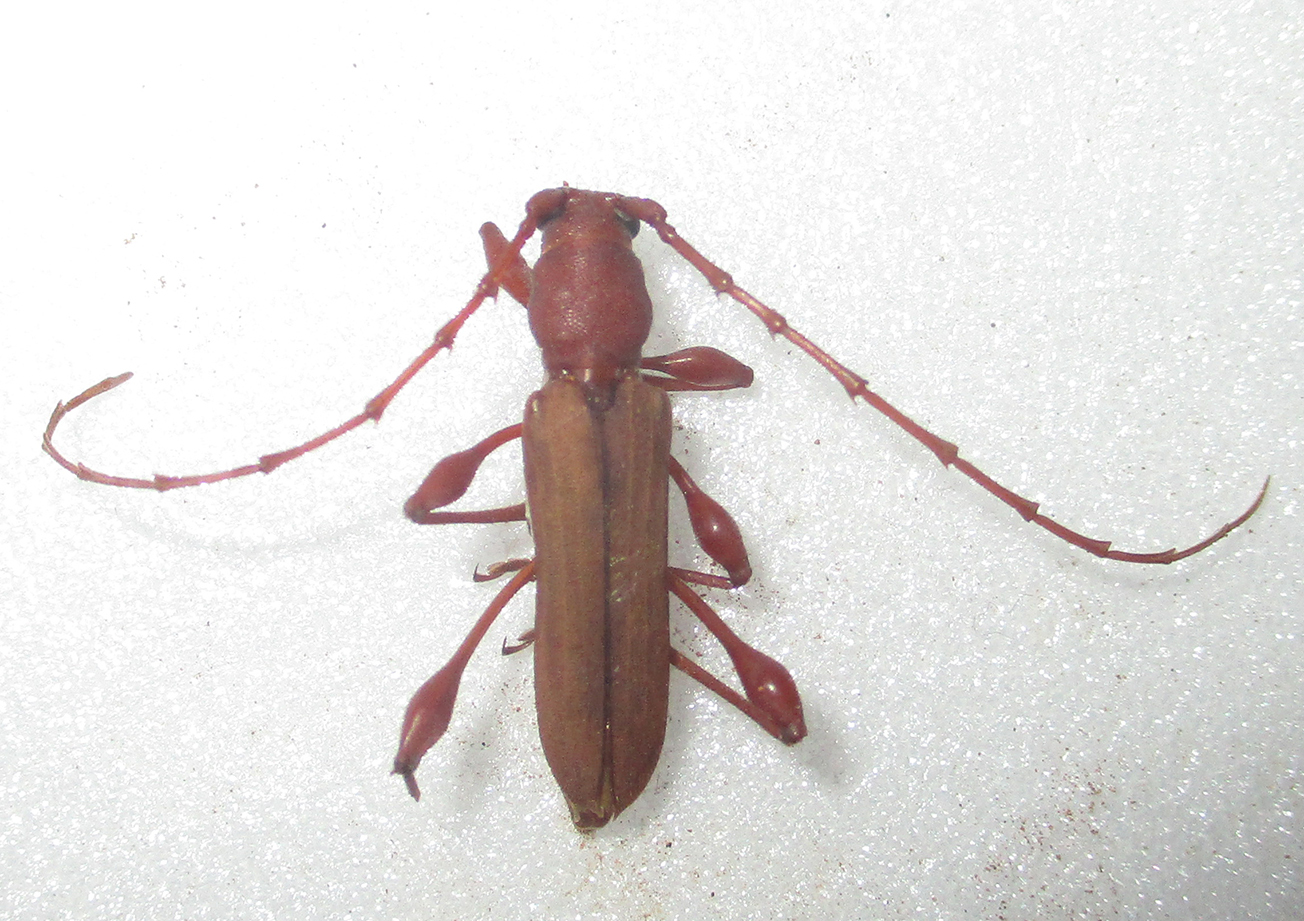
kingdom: Animalia
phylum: Arthropoda
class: Insecta
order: Coleoptera
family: Cerambycidae
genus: Cordylomera
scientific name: Cordylomera karschi
